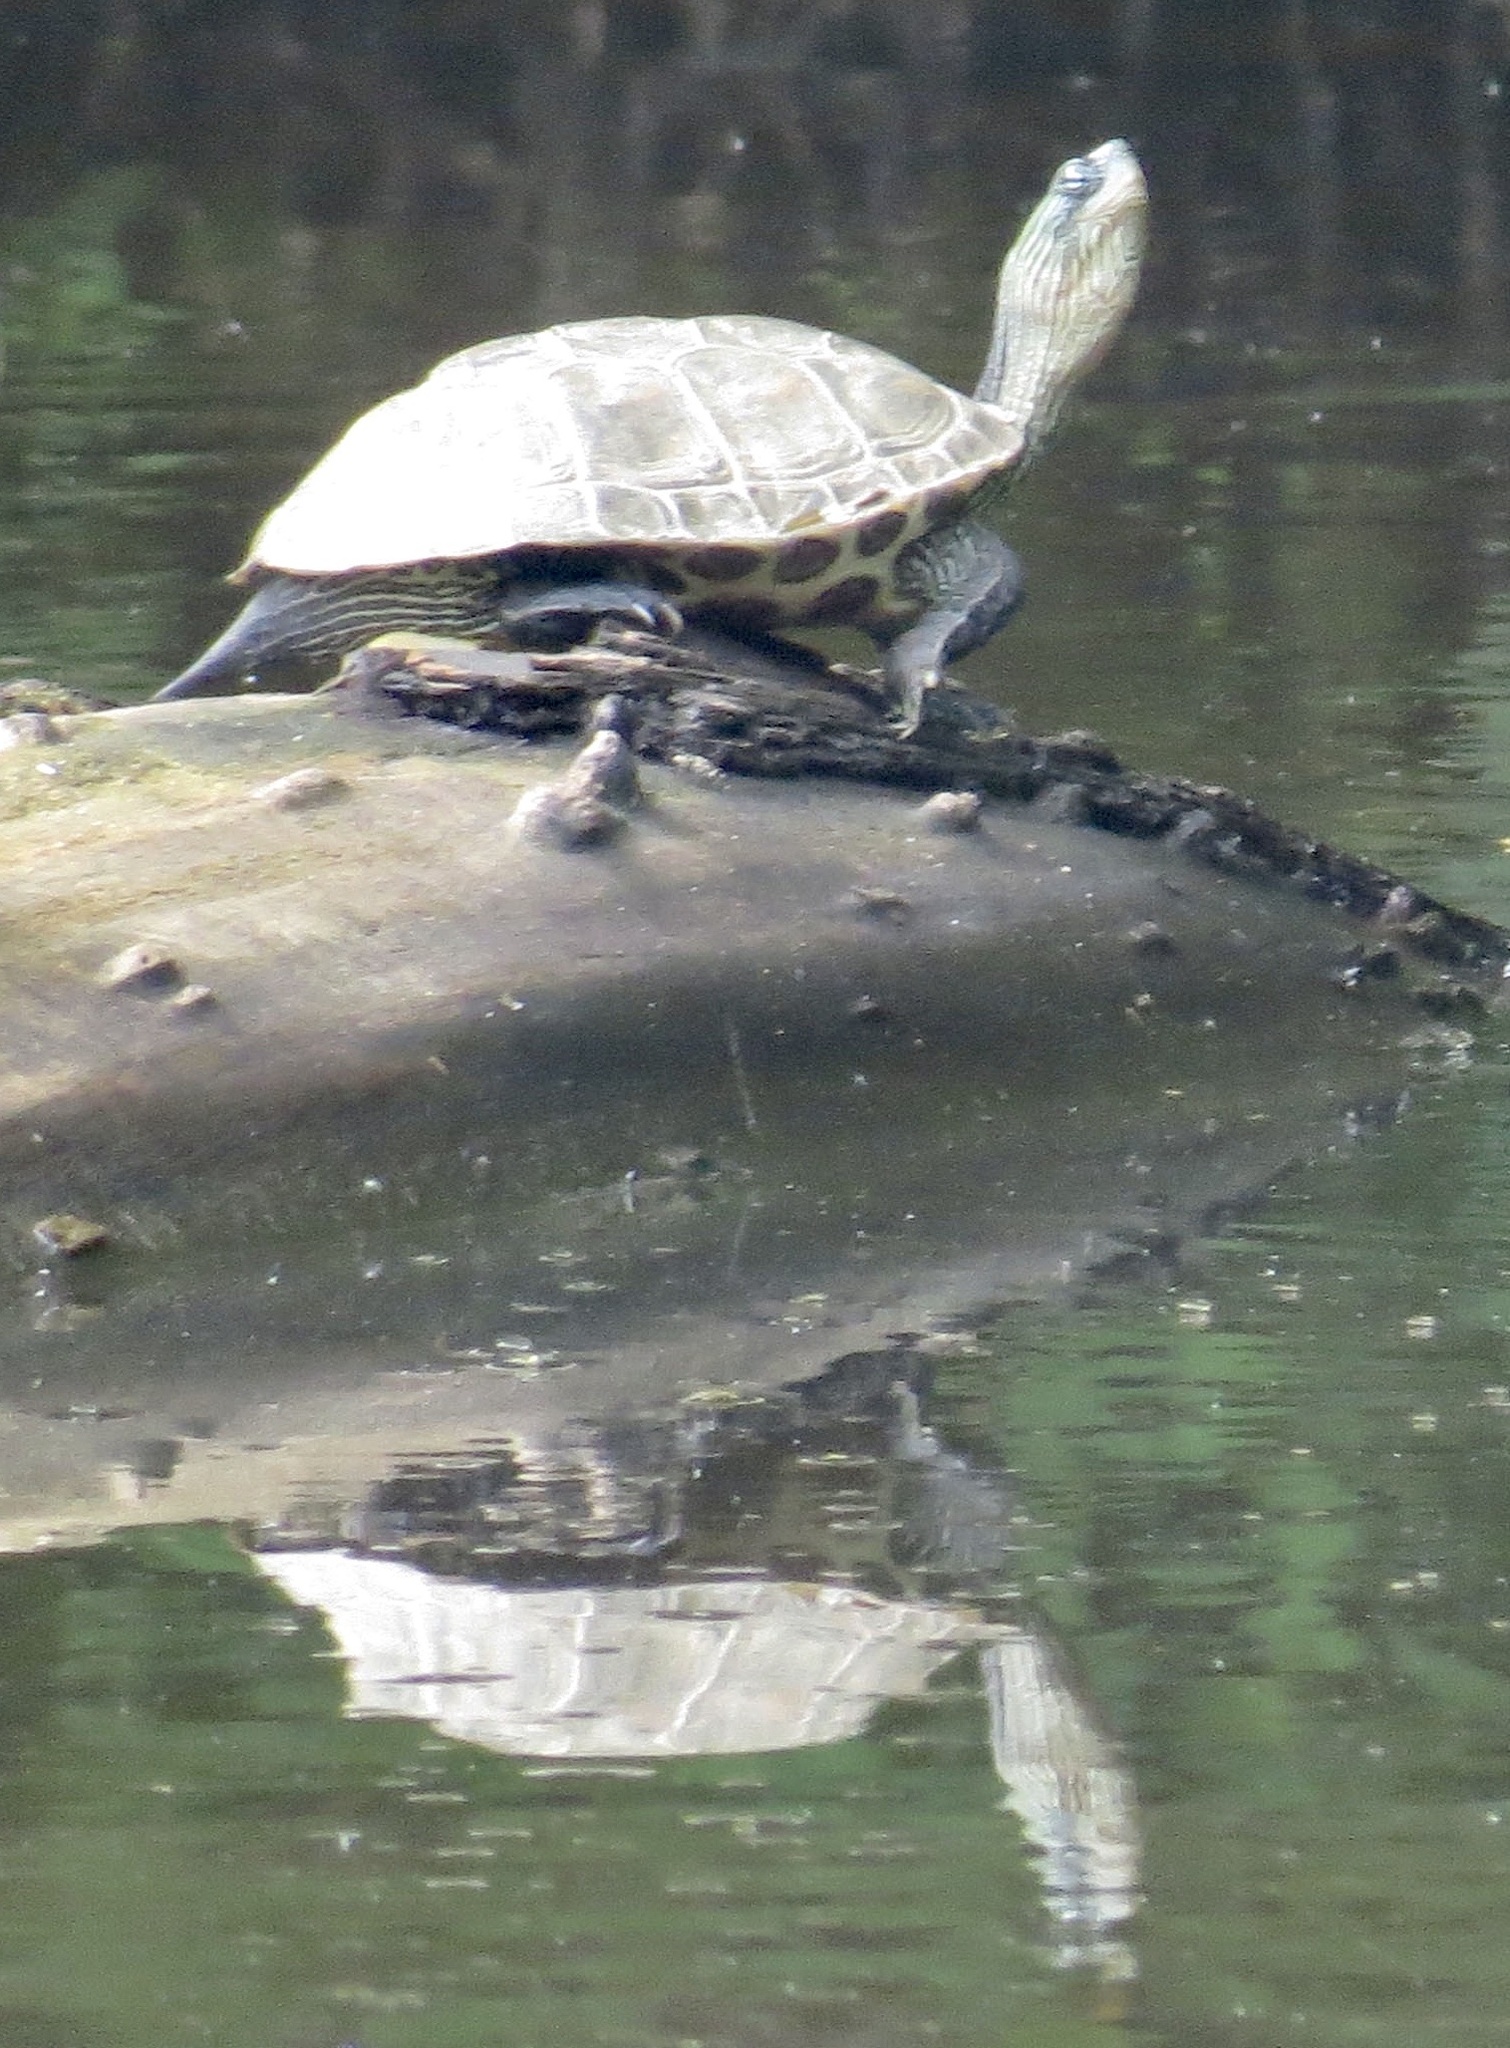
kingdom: Animalia
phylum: Chordata
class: Testudines
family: Geoemydidae
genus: Mauremys
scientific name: Mauremys sinensis
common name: Chinese stripe-necked turtle
